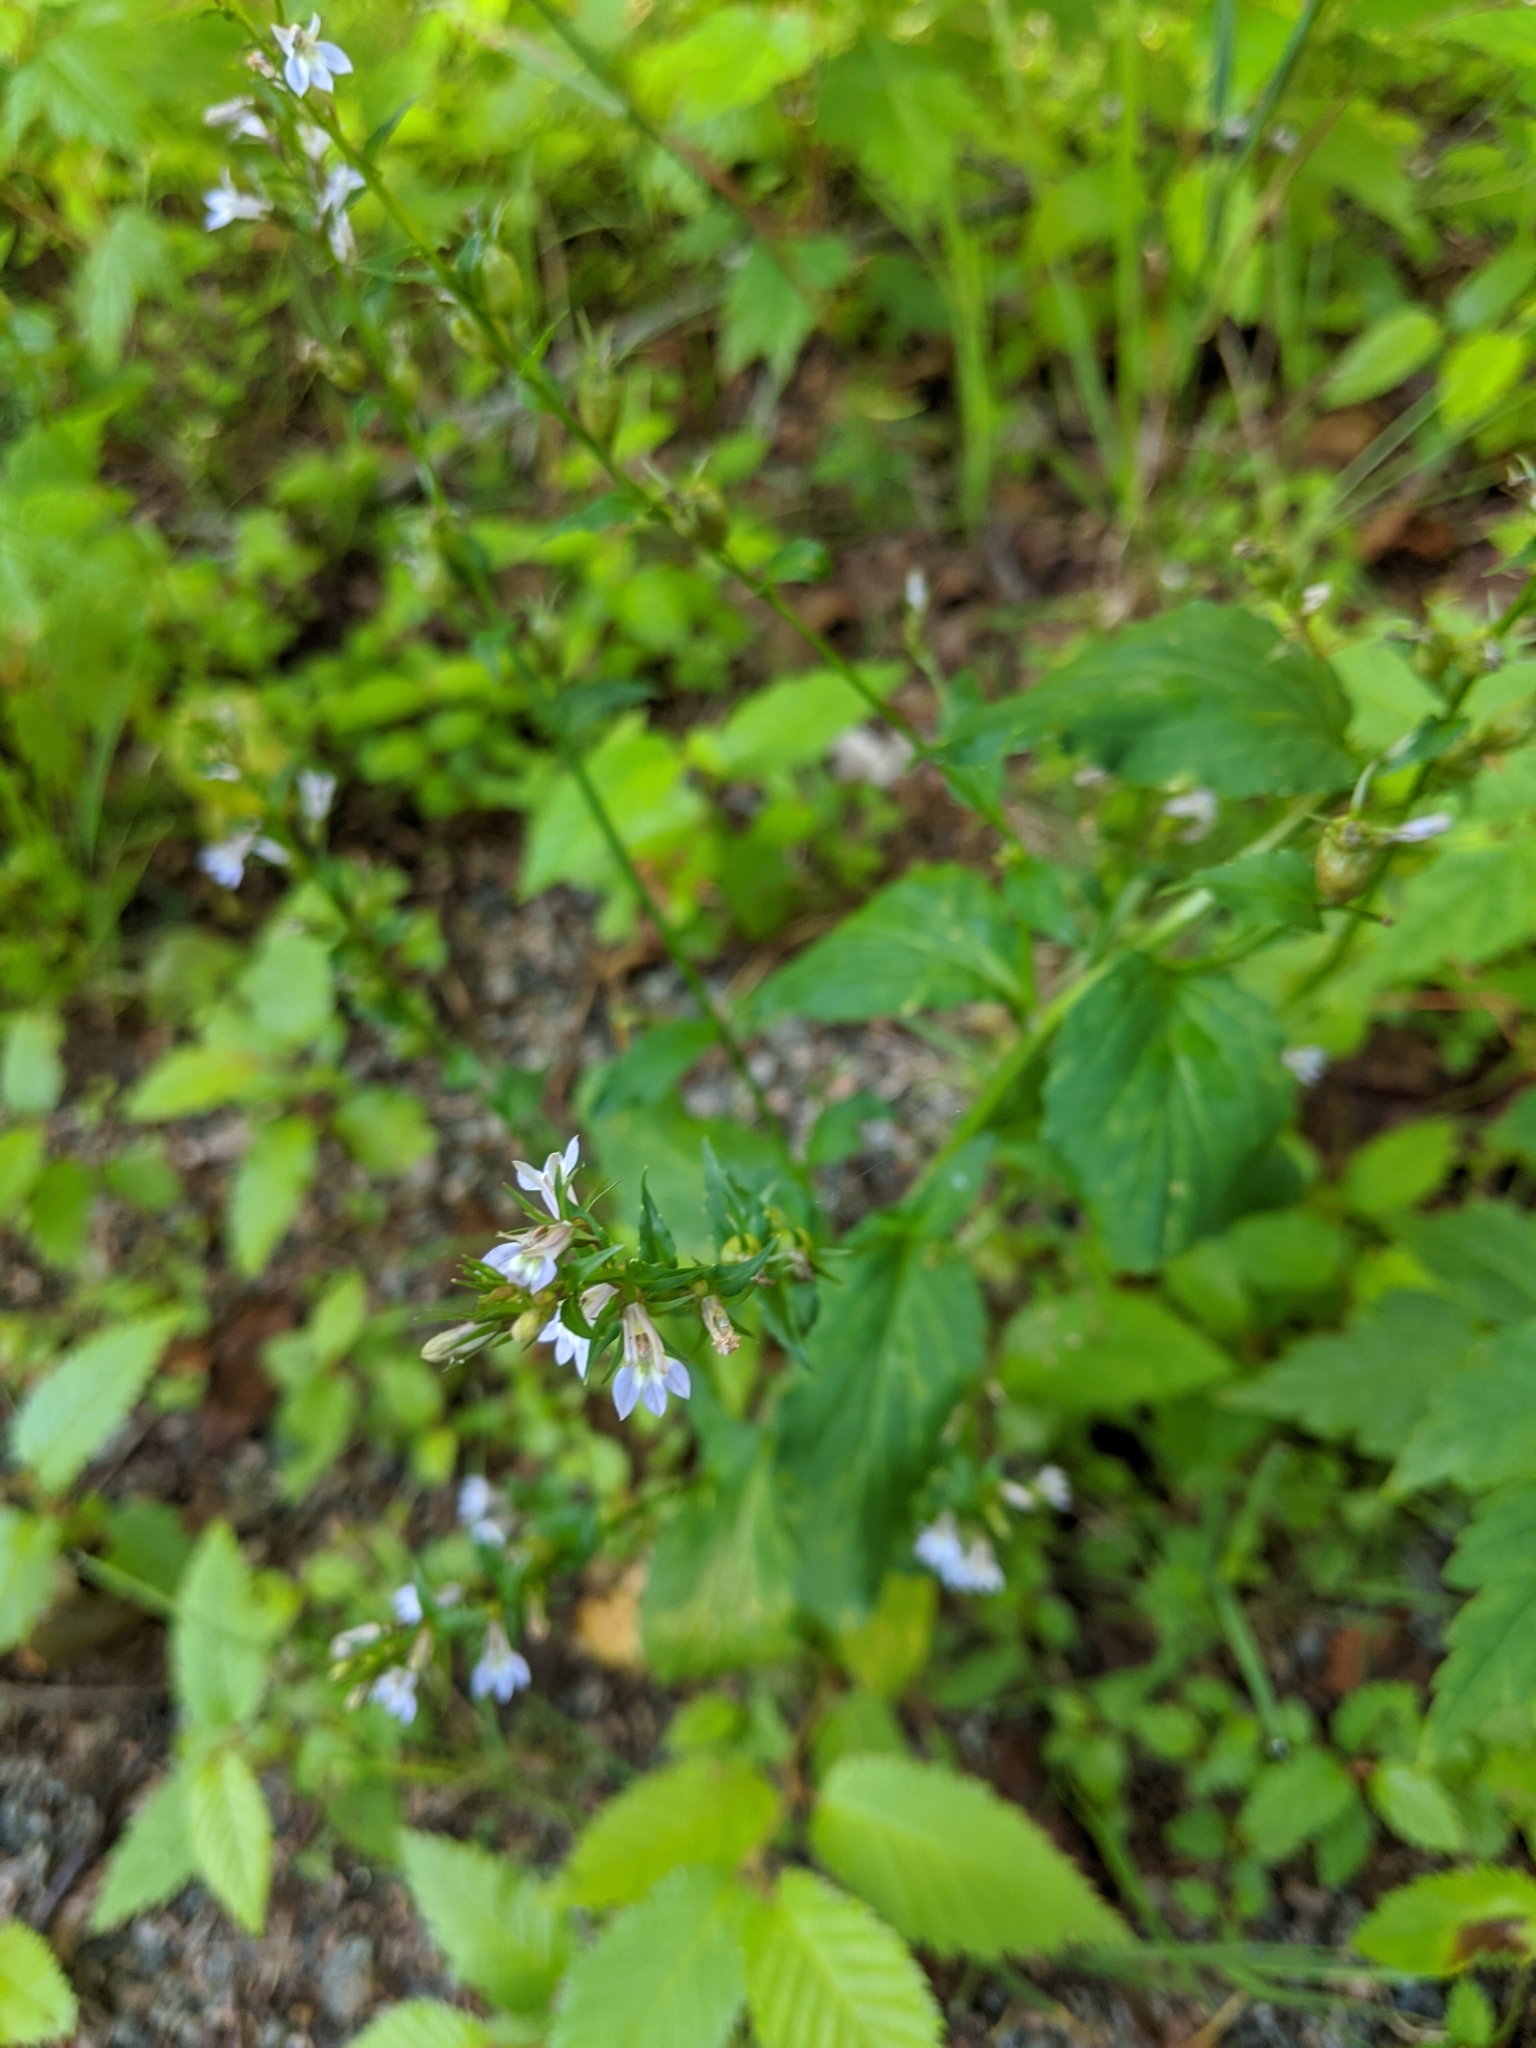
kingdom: Plantae
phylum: Tracheophyta
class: Magnoliopsida
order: Asterales
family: Campanulaceae
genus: Lobelia
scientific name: Lobelia inflata
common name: Indian tobacco
